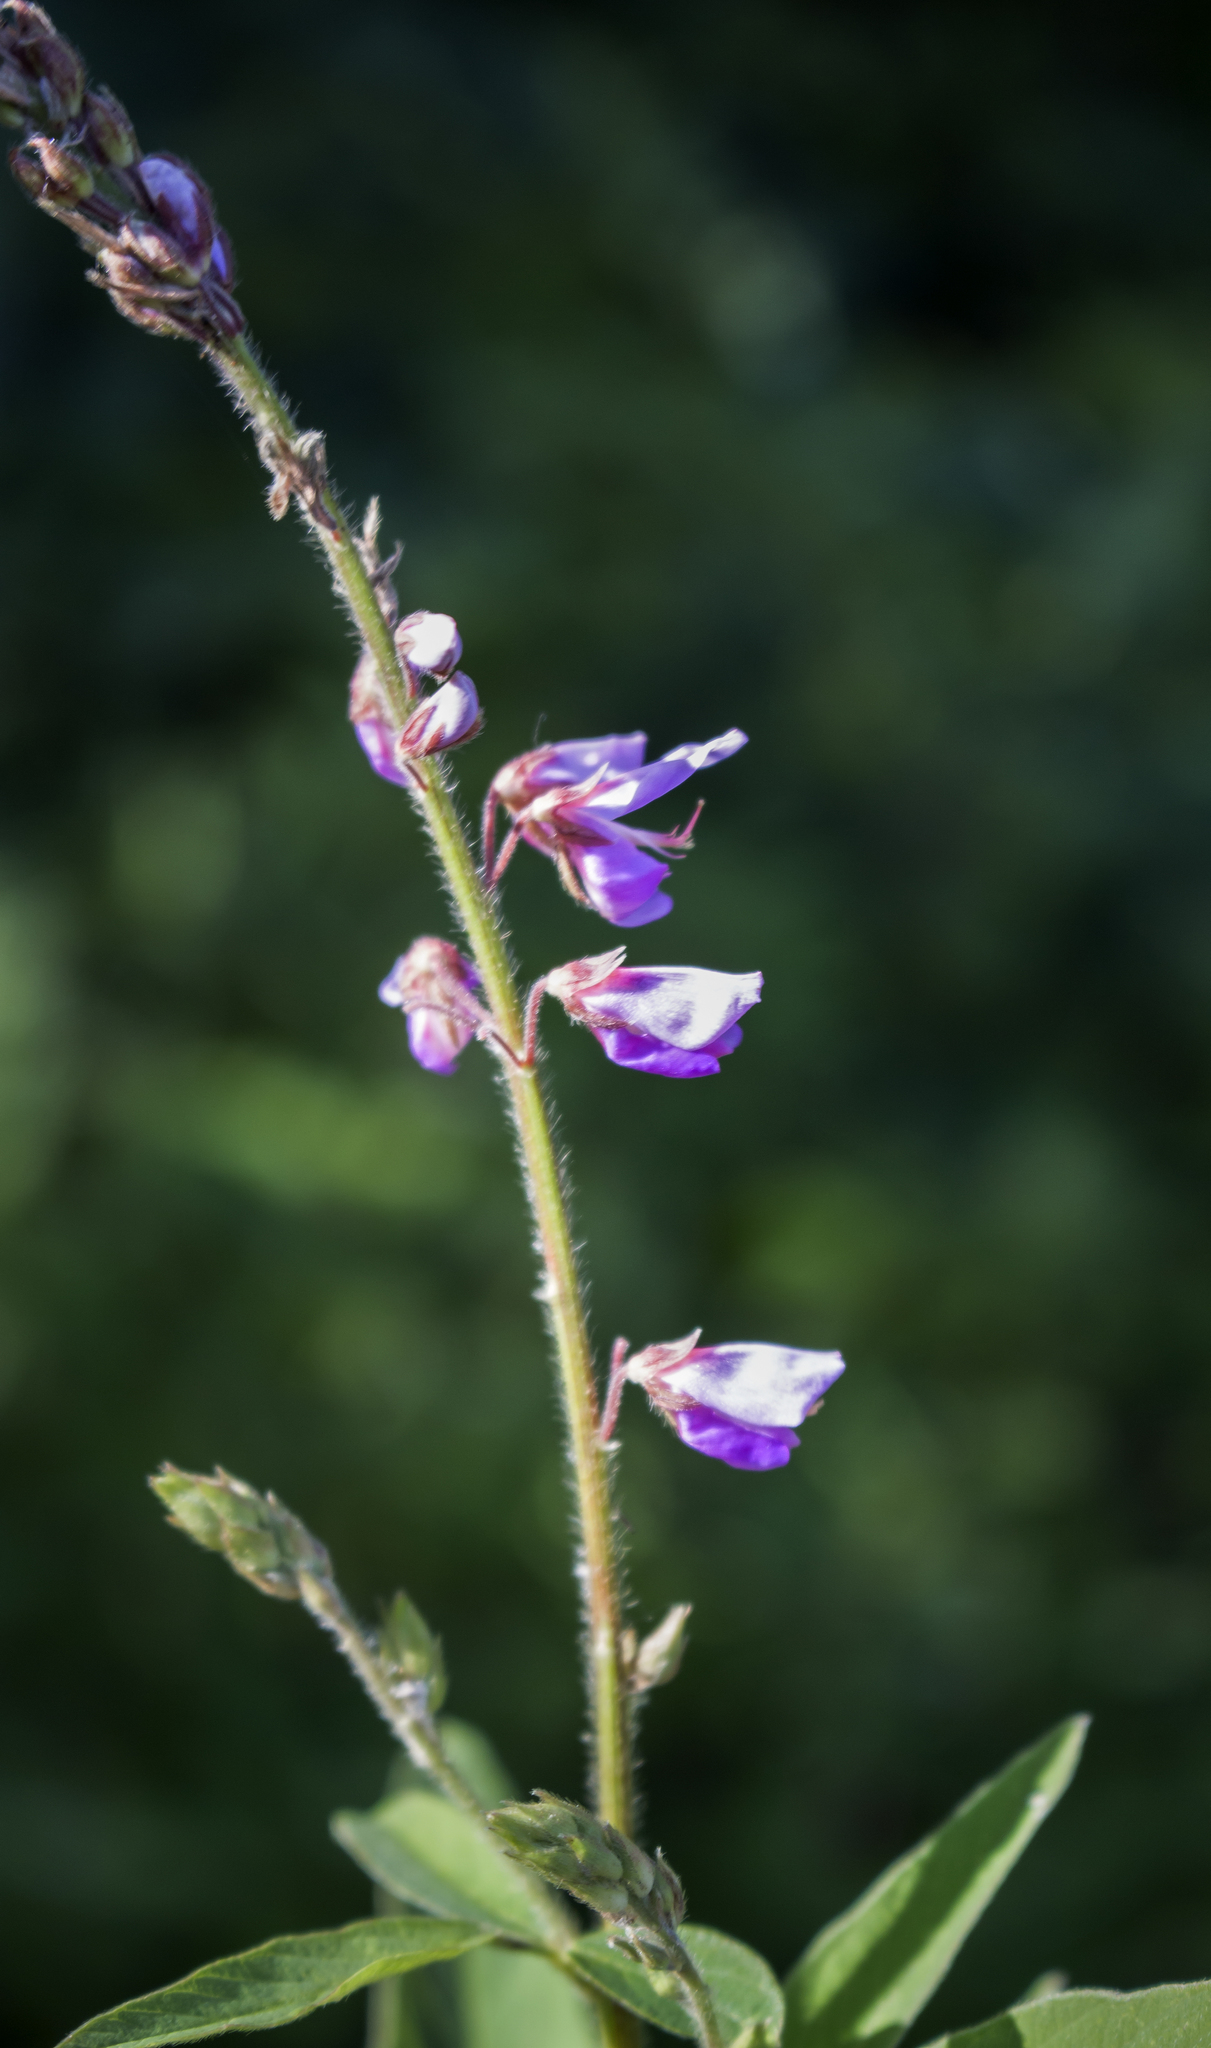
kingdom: Plantae
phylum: Tracheophyta
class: Magnoliopsida
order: Fabales
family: Fabaceae
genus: Desmodium
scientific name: Desmodium canadense
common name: Canada tick-trefoil
